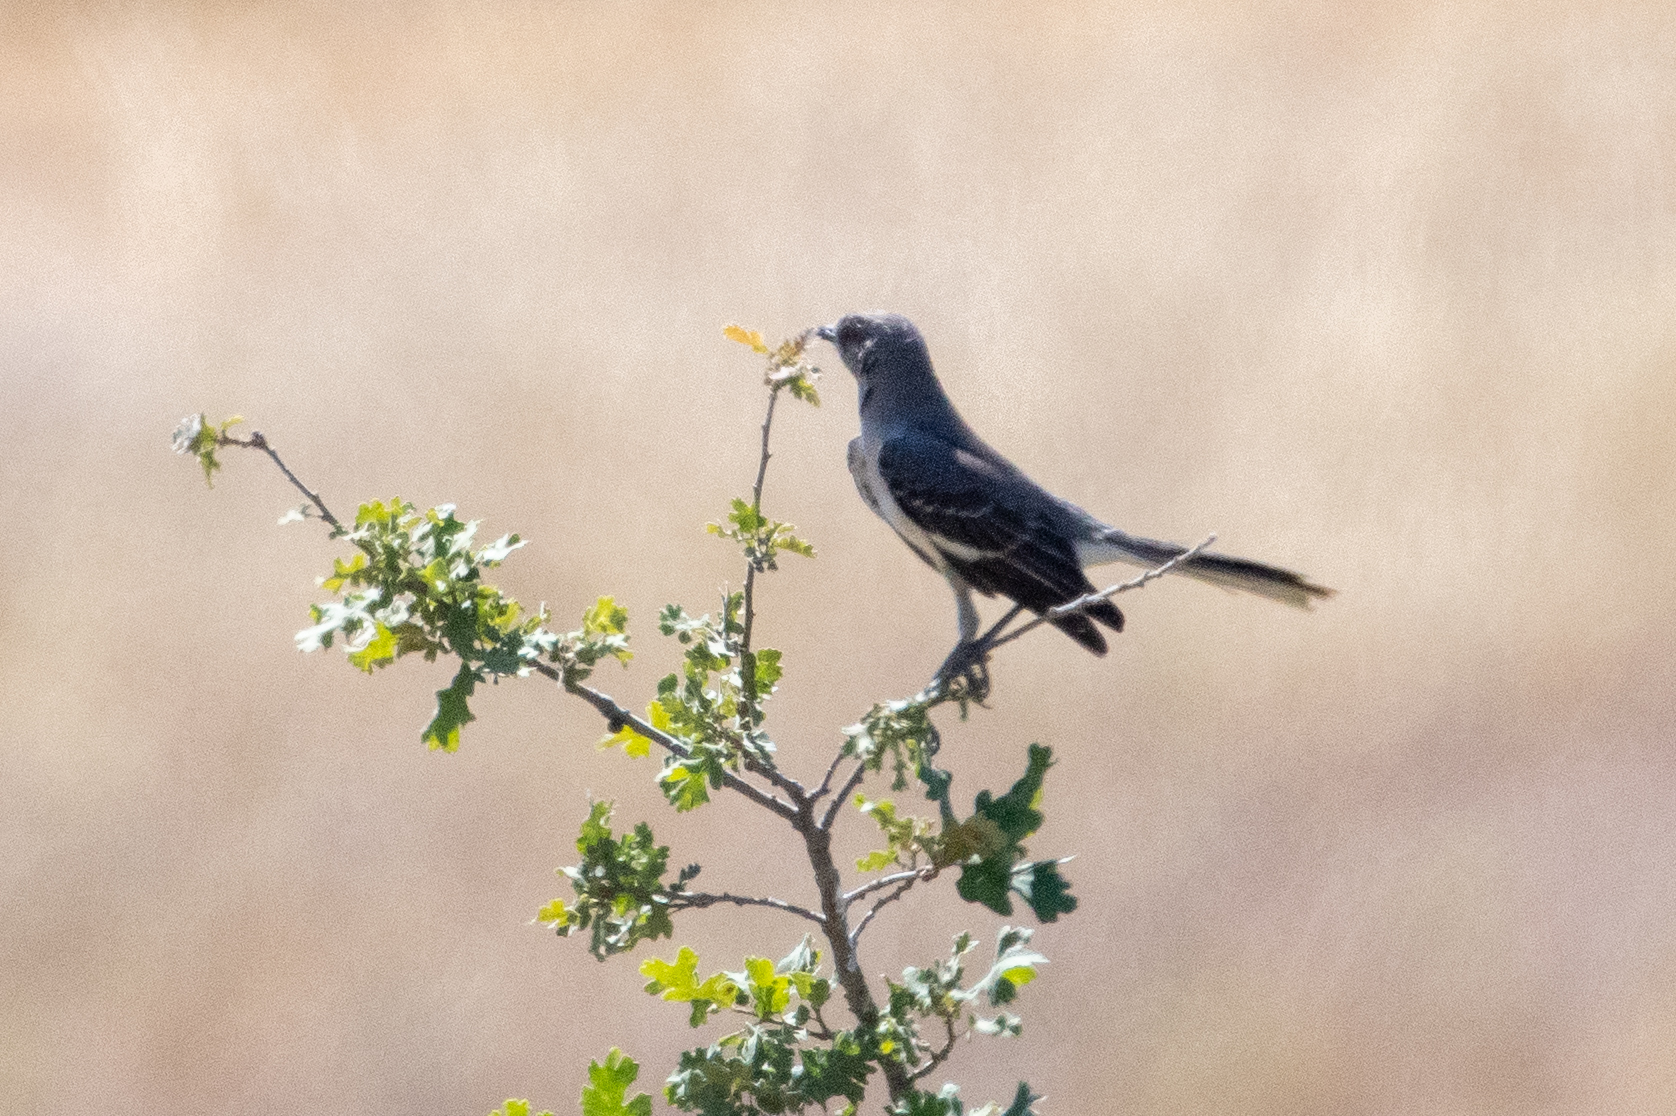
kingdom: Animalia
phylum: Chordata
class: Aves
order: Passeriformes
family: Mimidae
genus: Mimus
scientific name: Mimus polyglottos
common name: Northern mockingbird
